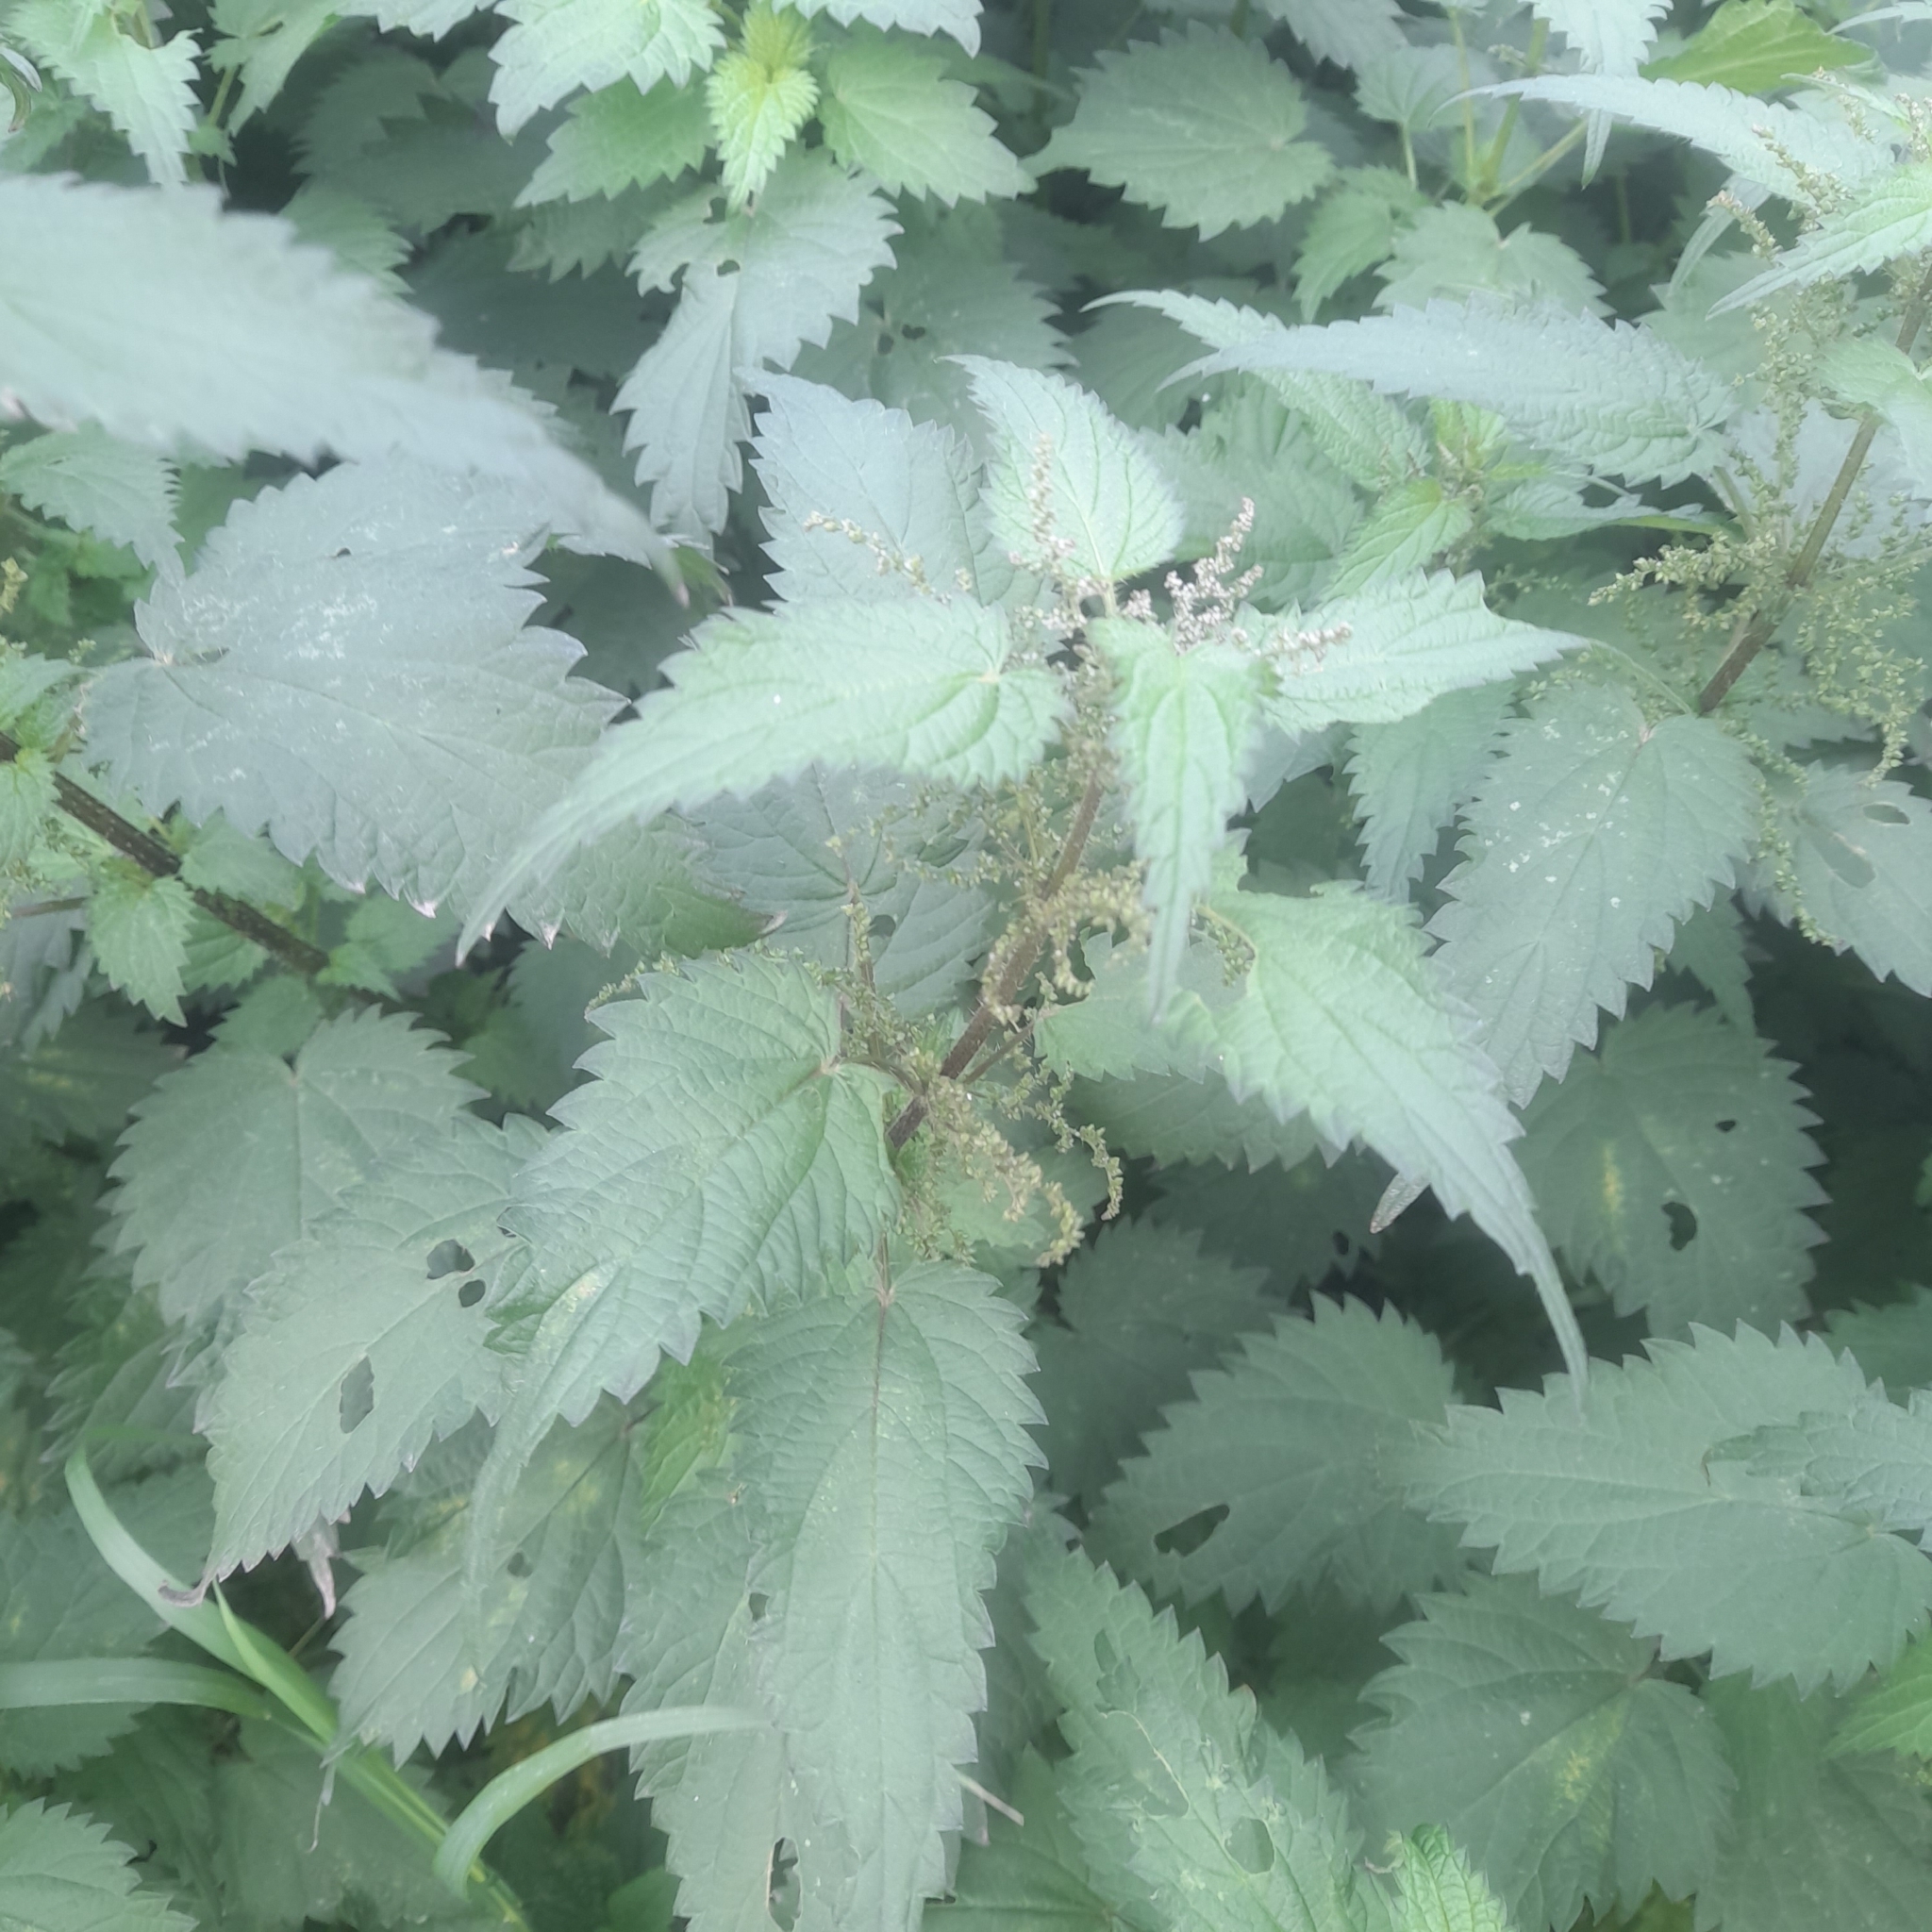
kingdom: Plantae
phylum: Tracheophyta
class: Magnoliopsida
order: Rosales
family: Urticaceae
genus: Urtica
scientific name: Urtica dioica
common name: Common nettle
